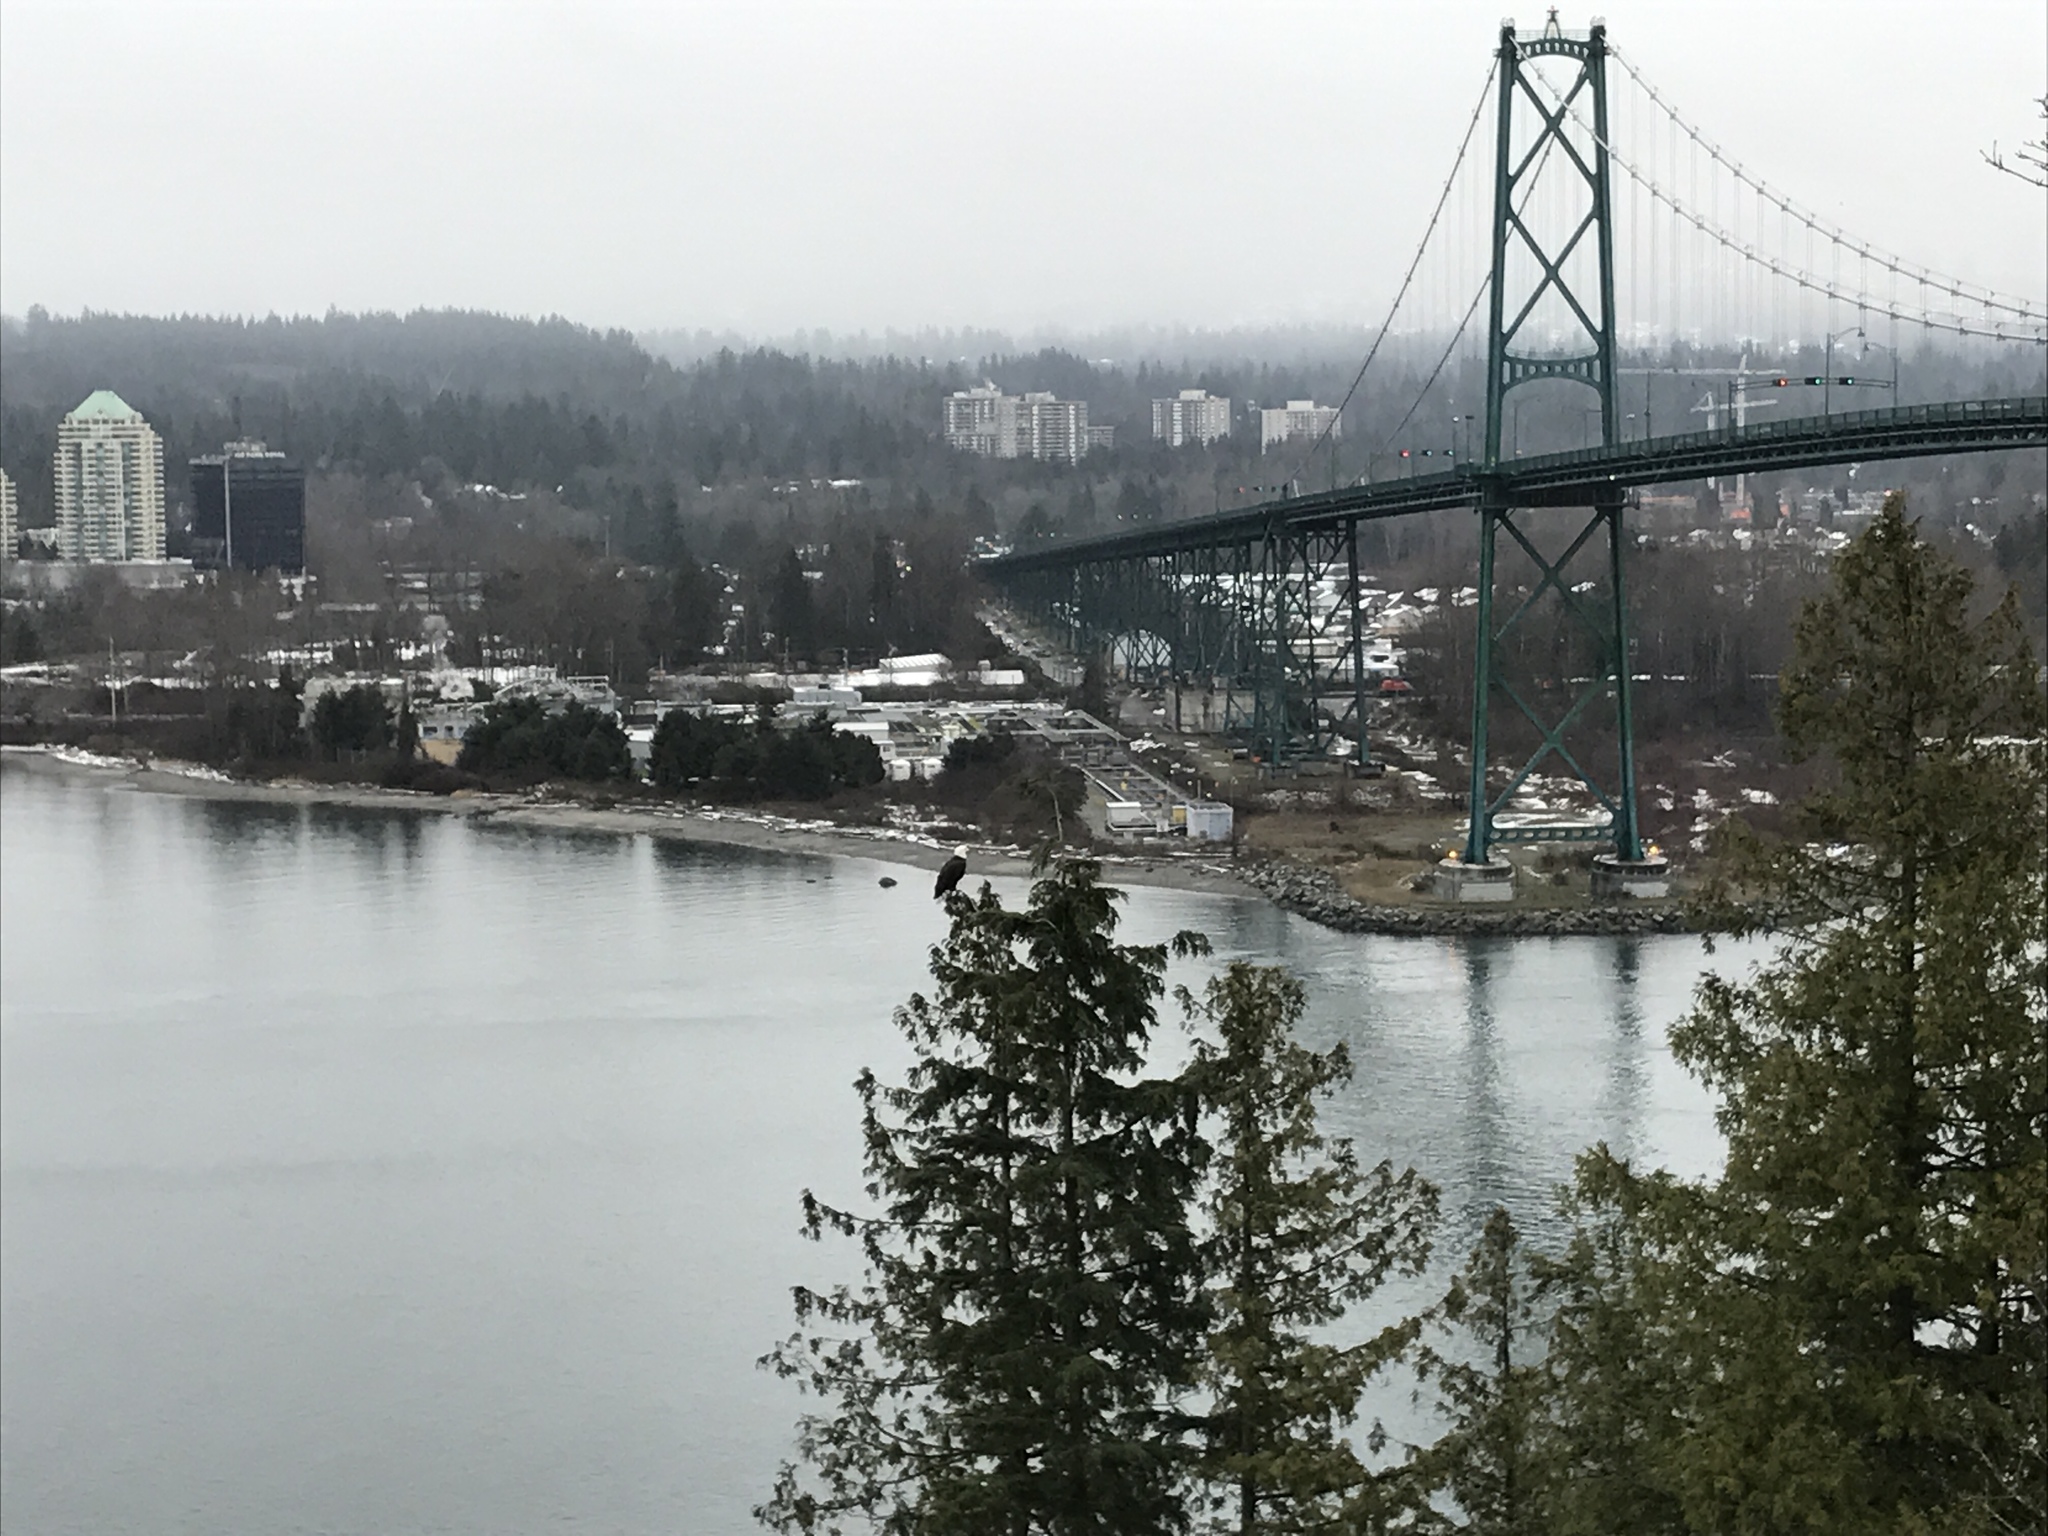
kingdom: Animalia
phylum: Chordata
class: Aves
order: Accipitriformes
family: Accipitridae
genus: Haliaeetus
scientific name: Haliaeetus leucocephalus
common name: Bald eagle
